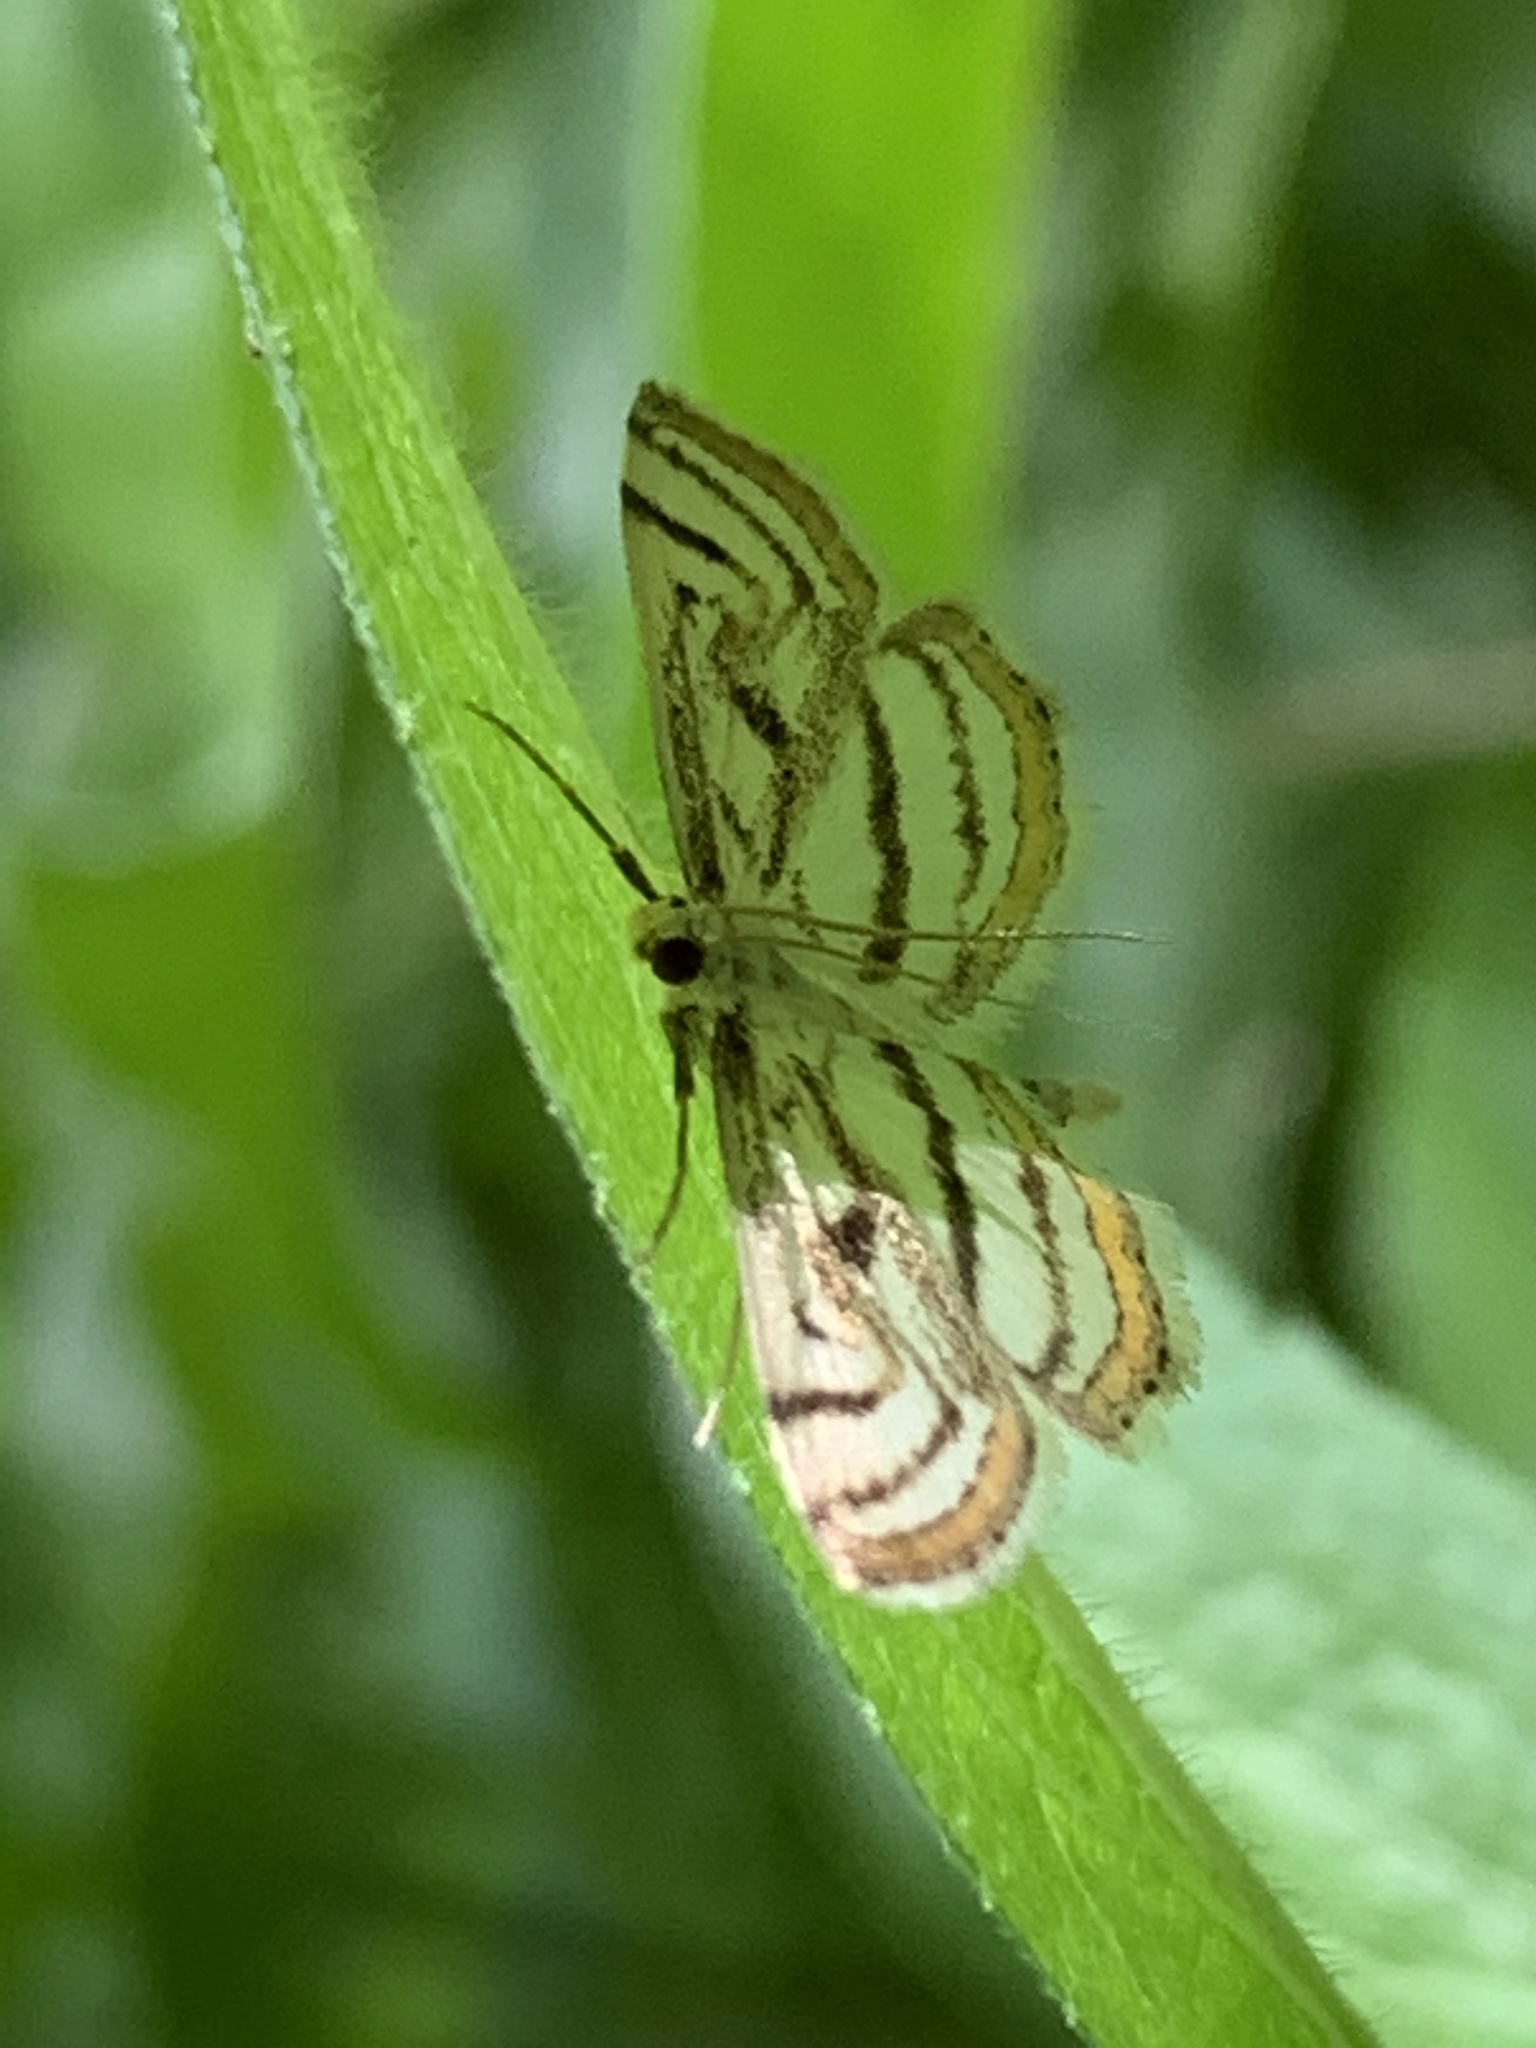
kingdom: Animalia
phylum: Arthropoda
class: Insecta
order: Lepidoptera
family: Crambidae
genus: Parapoynx
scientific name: Parapoynx badiusalis
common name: Chestnut-marked pondweed moth
